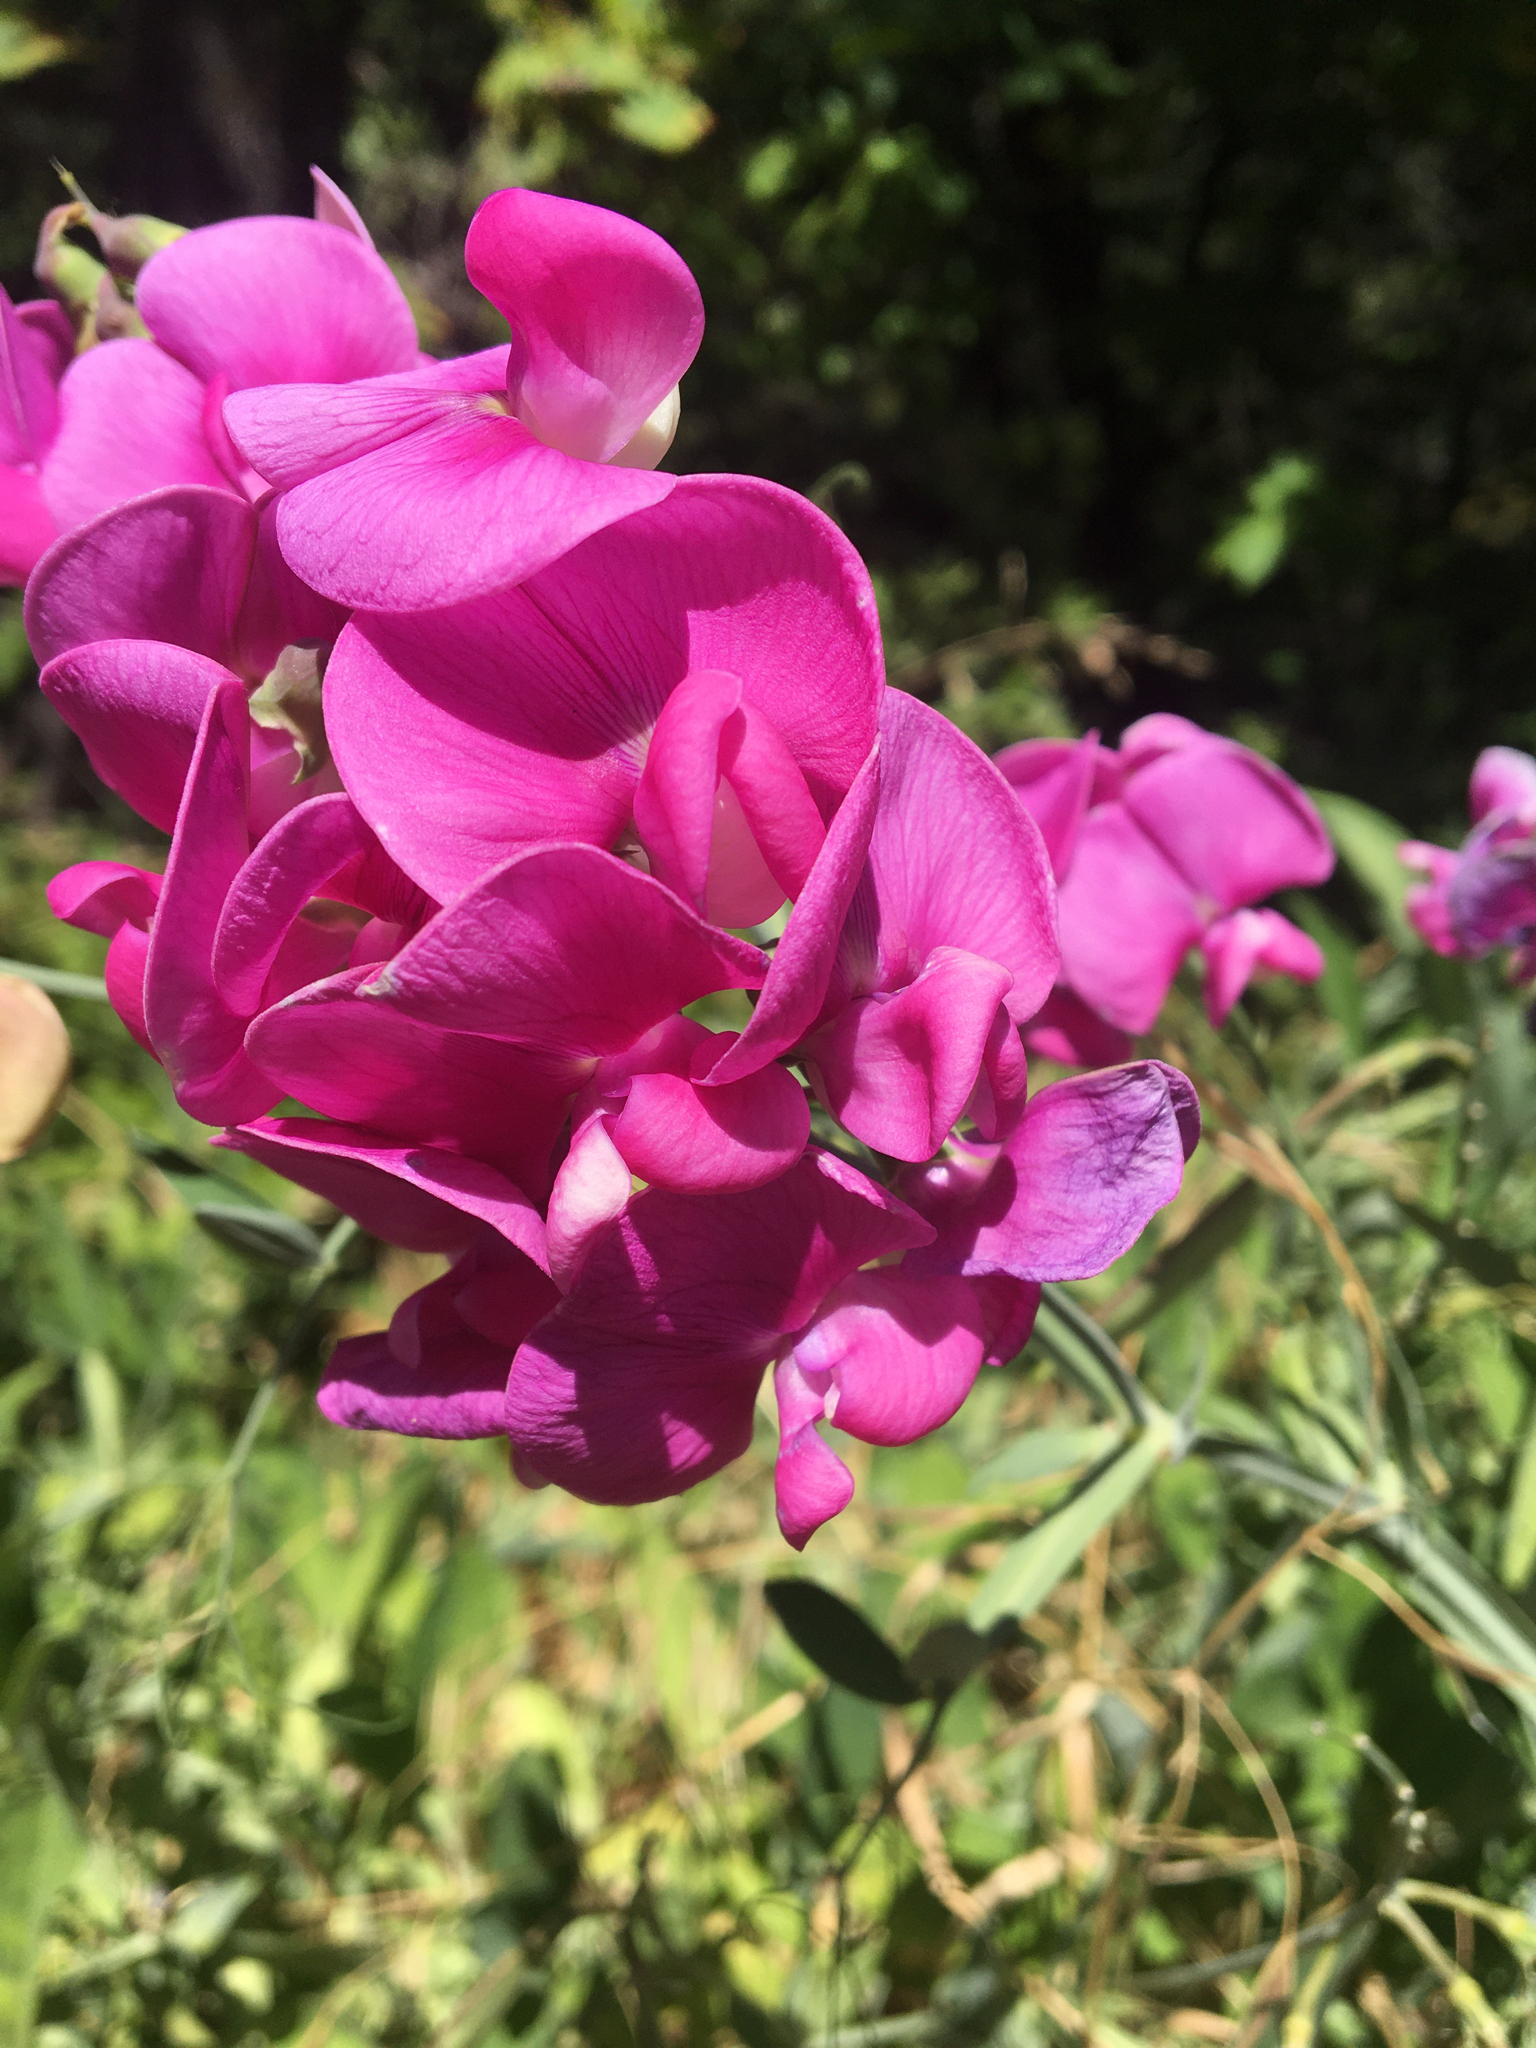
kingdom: Plantae
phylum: Tracheophyta
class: Magnoliopsida
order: Fabales
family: Fabaceae
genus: Lathyrus
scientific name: Lathyrus latifolius
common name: Perennial pea
